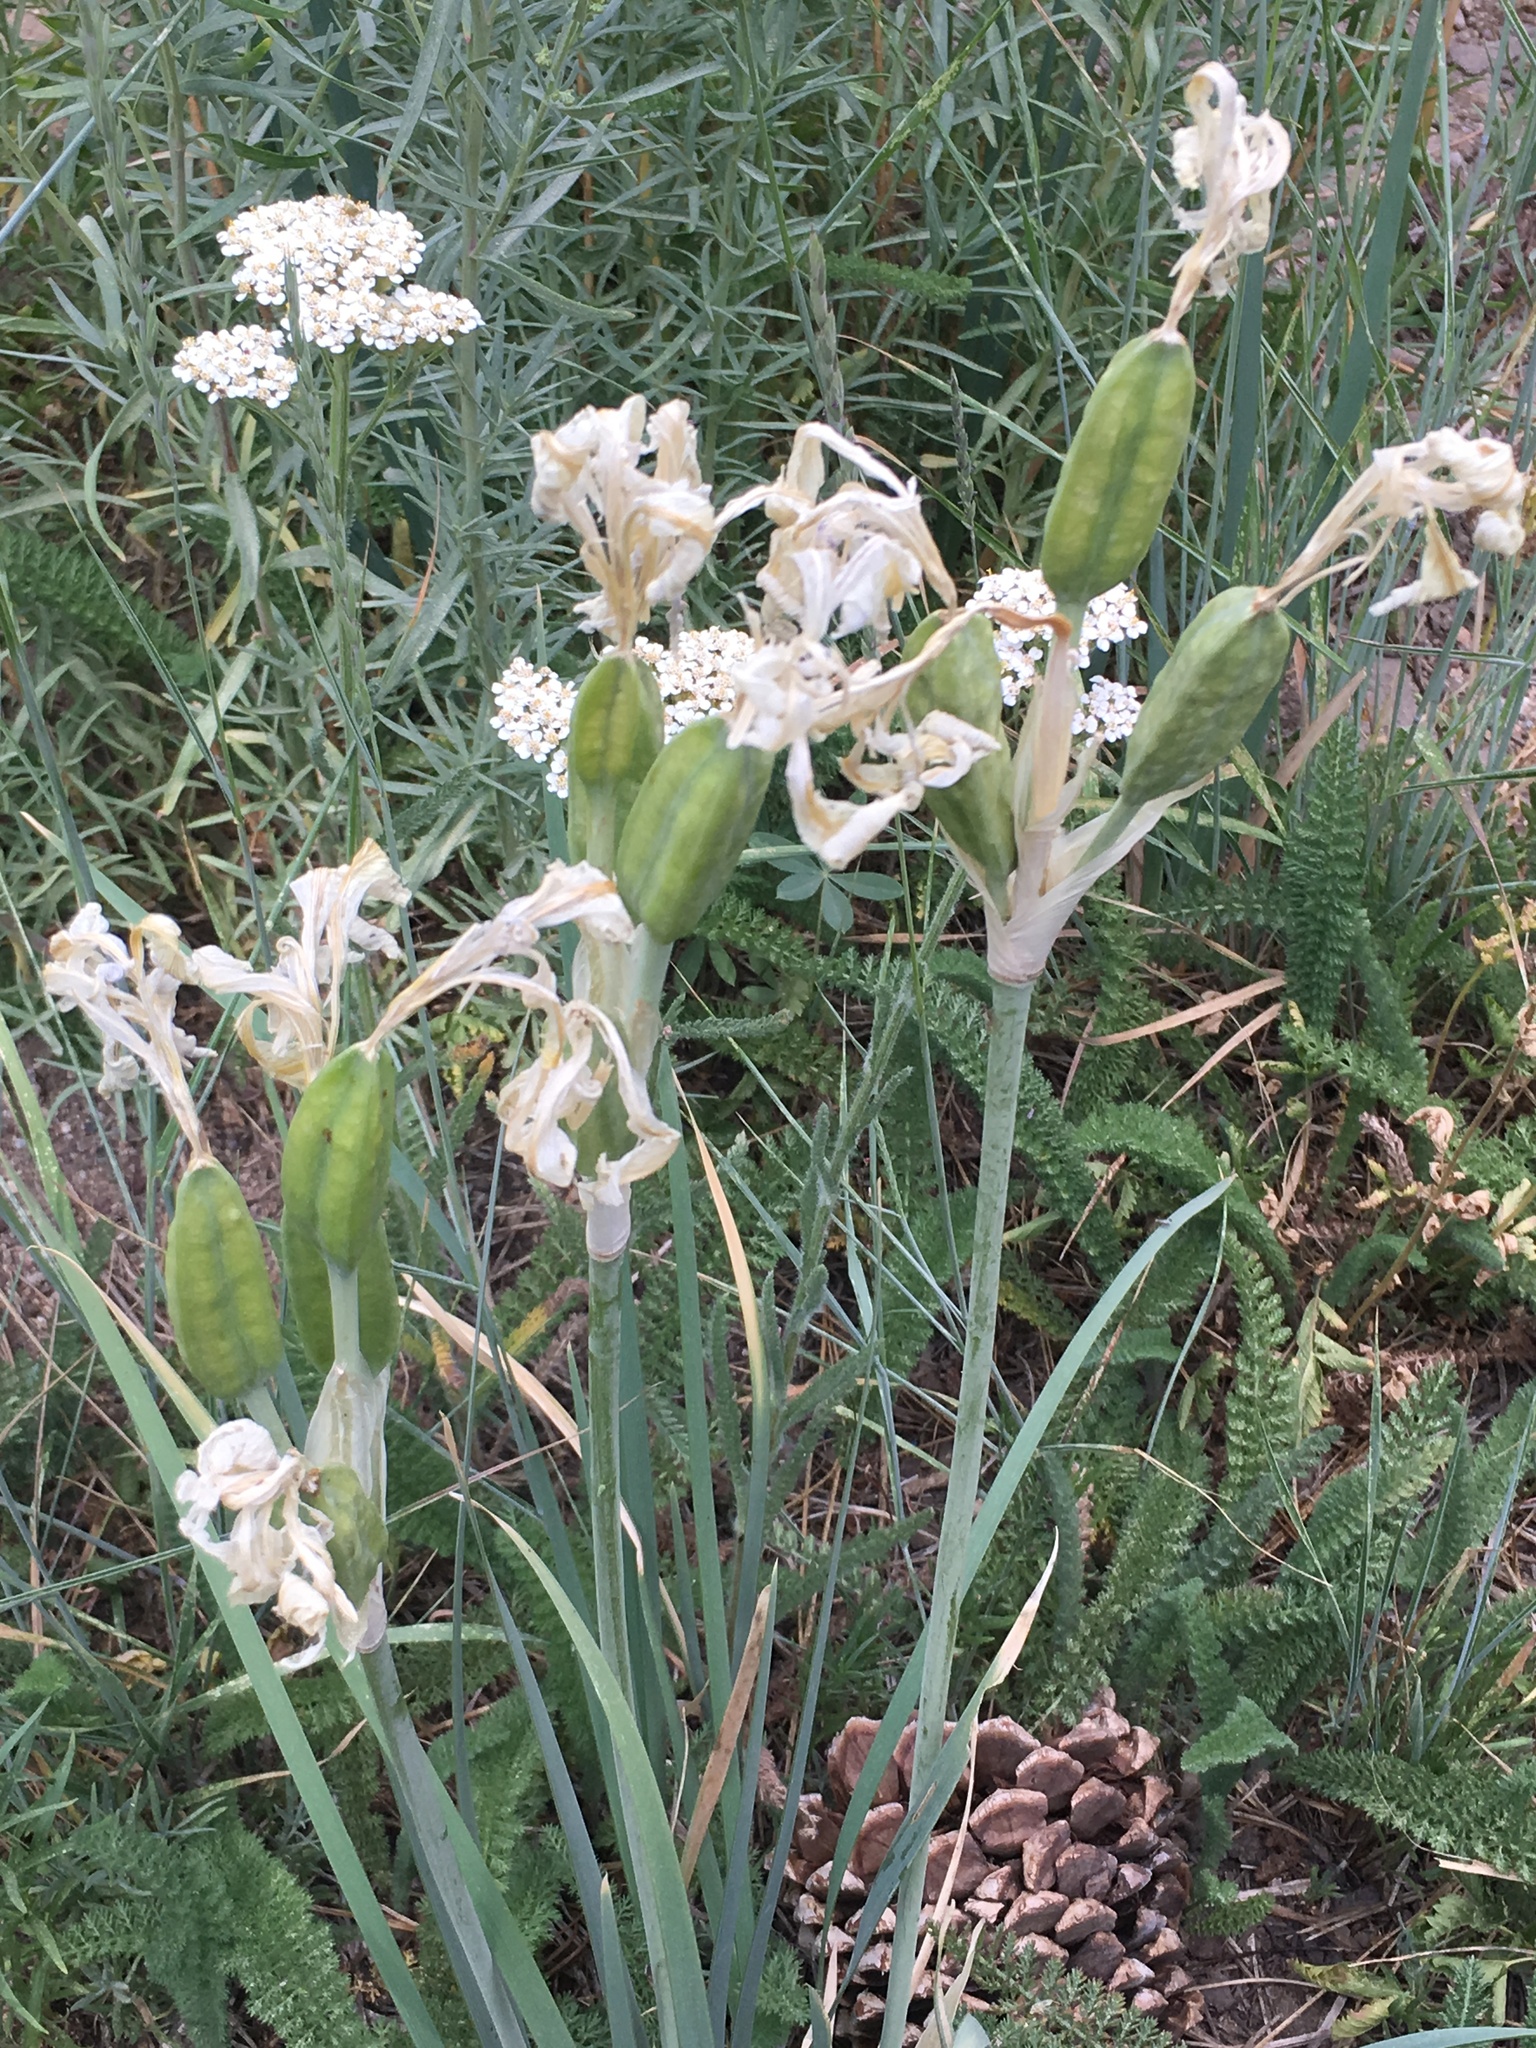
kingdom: Plantae
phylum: Tracheophyta
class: Liliopsida
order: Asparagales
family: Iridaceae
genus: Iris
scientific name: Iris missouriensis
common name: Rocky mountain iris
